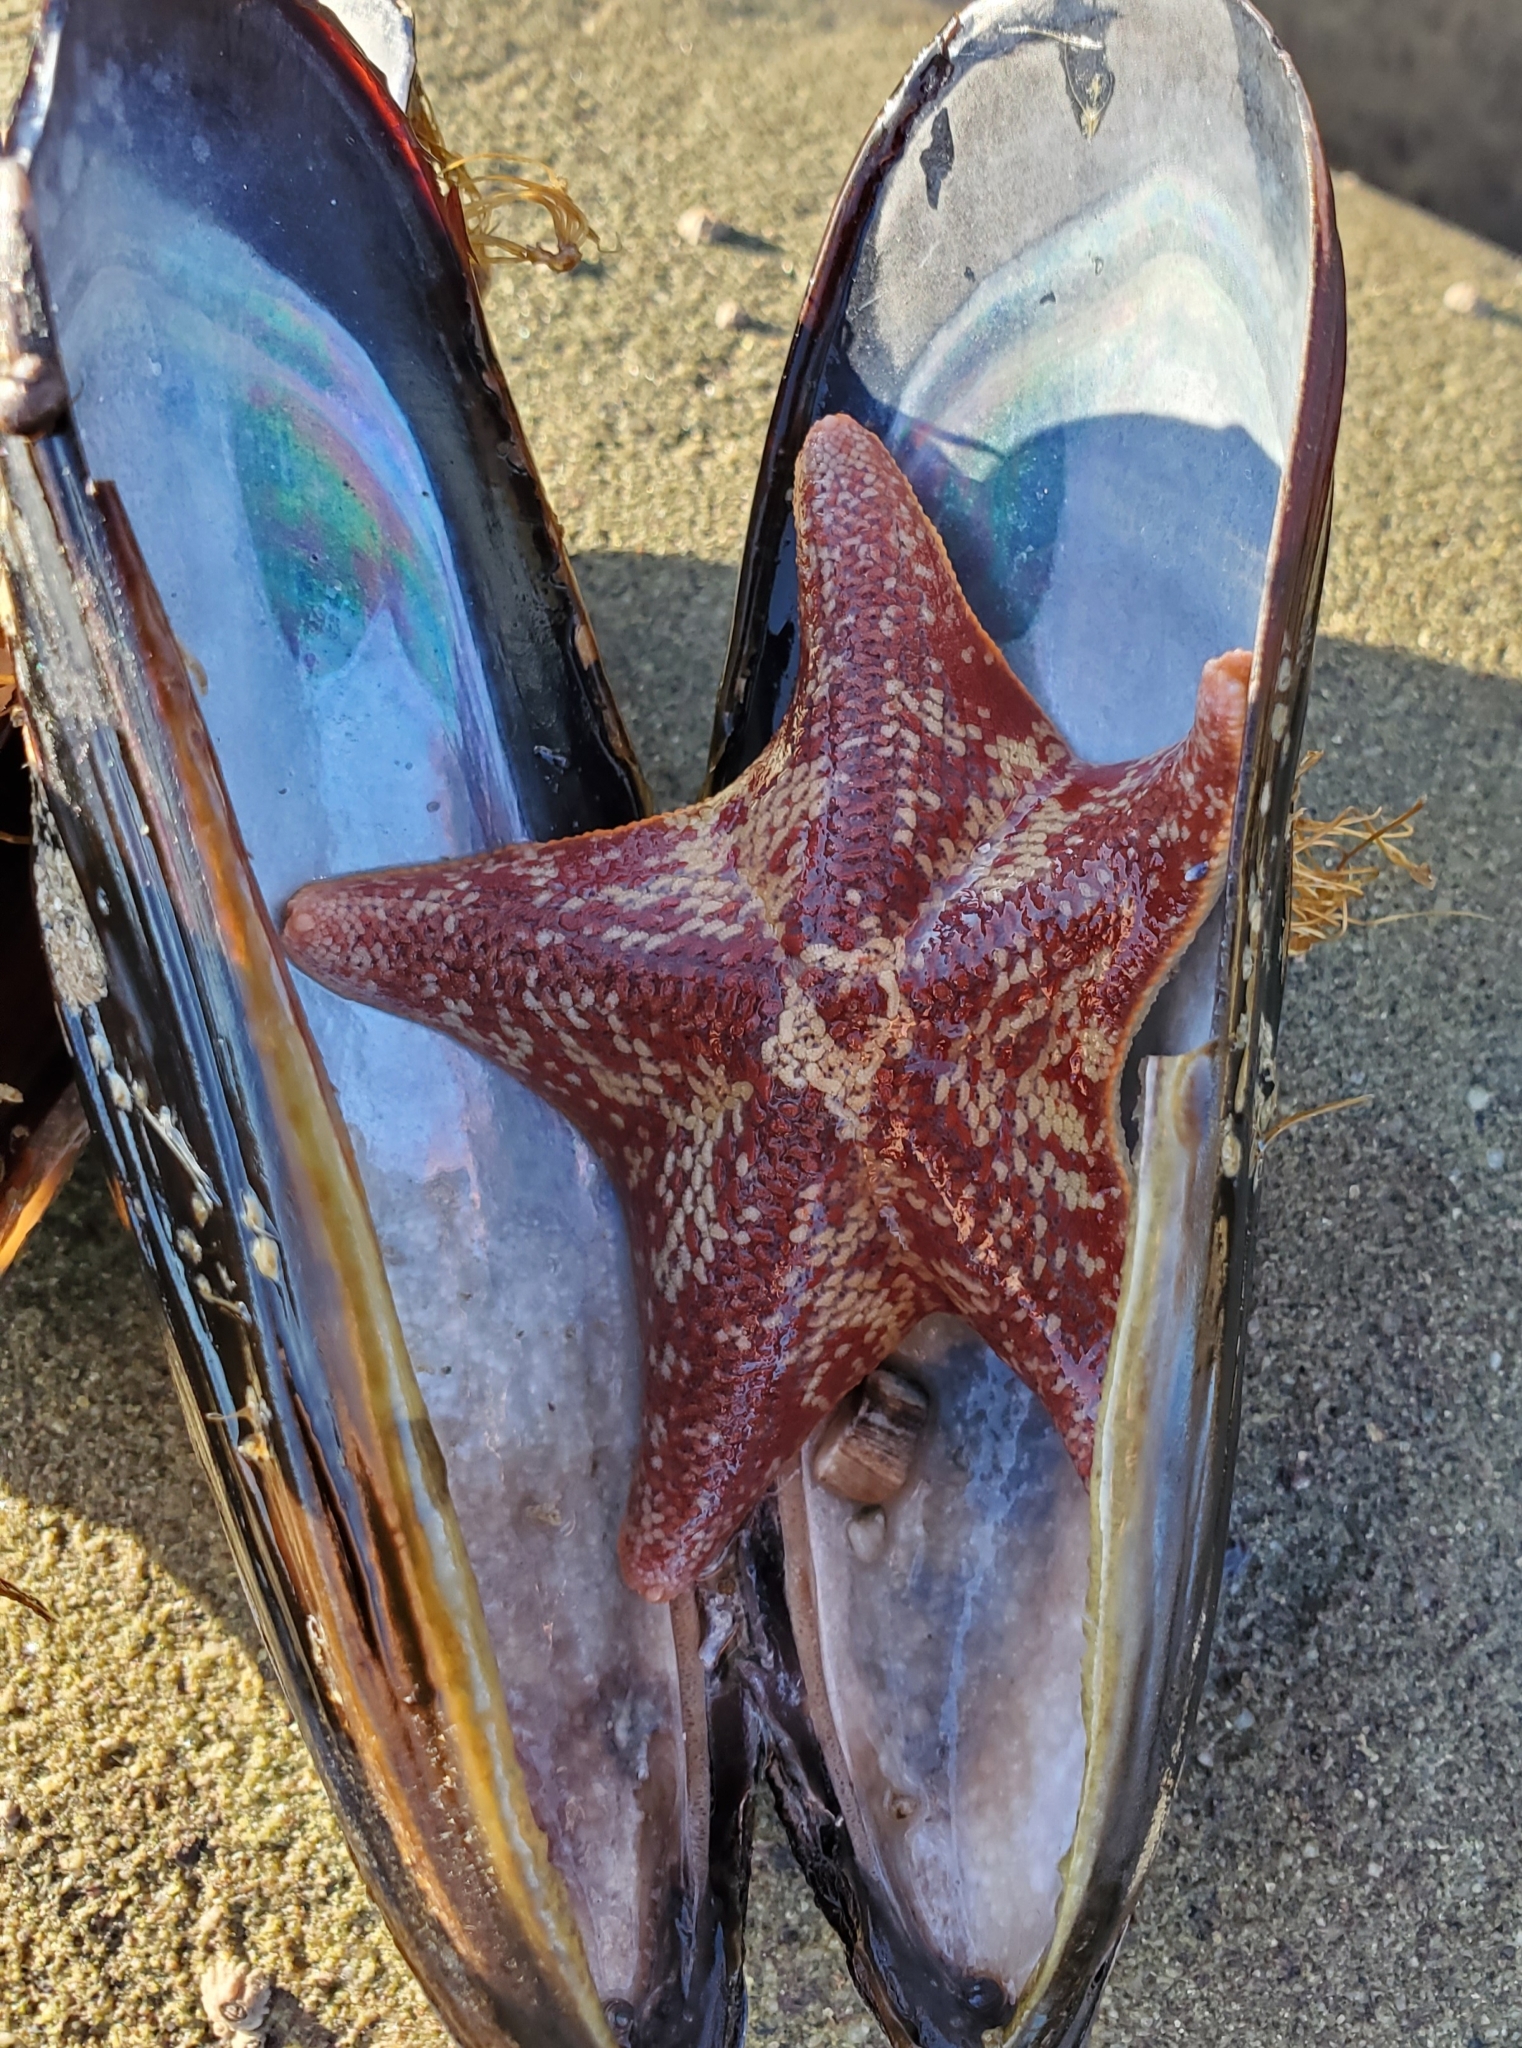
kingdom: Animalia
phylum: Echinodermata
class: Asteroidea
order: Valvatida
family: Asterinidae
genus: Patiria
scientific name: Patiria miniata
